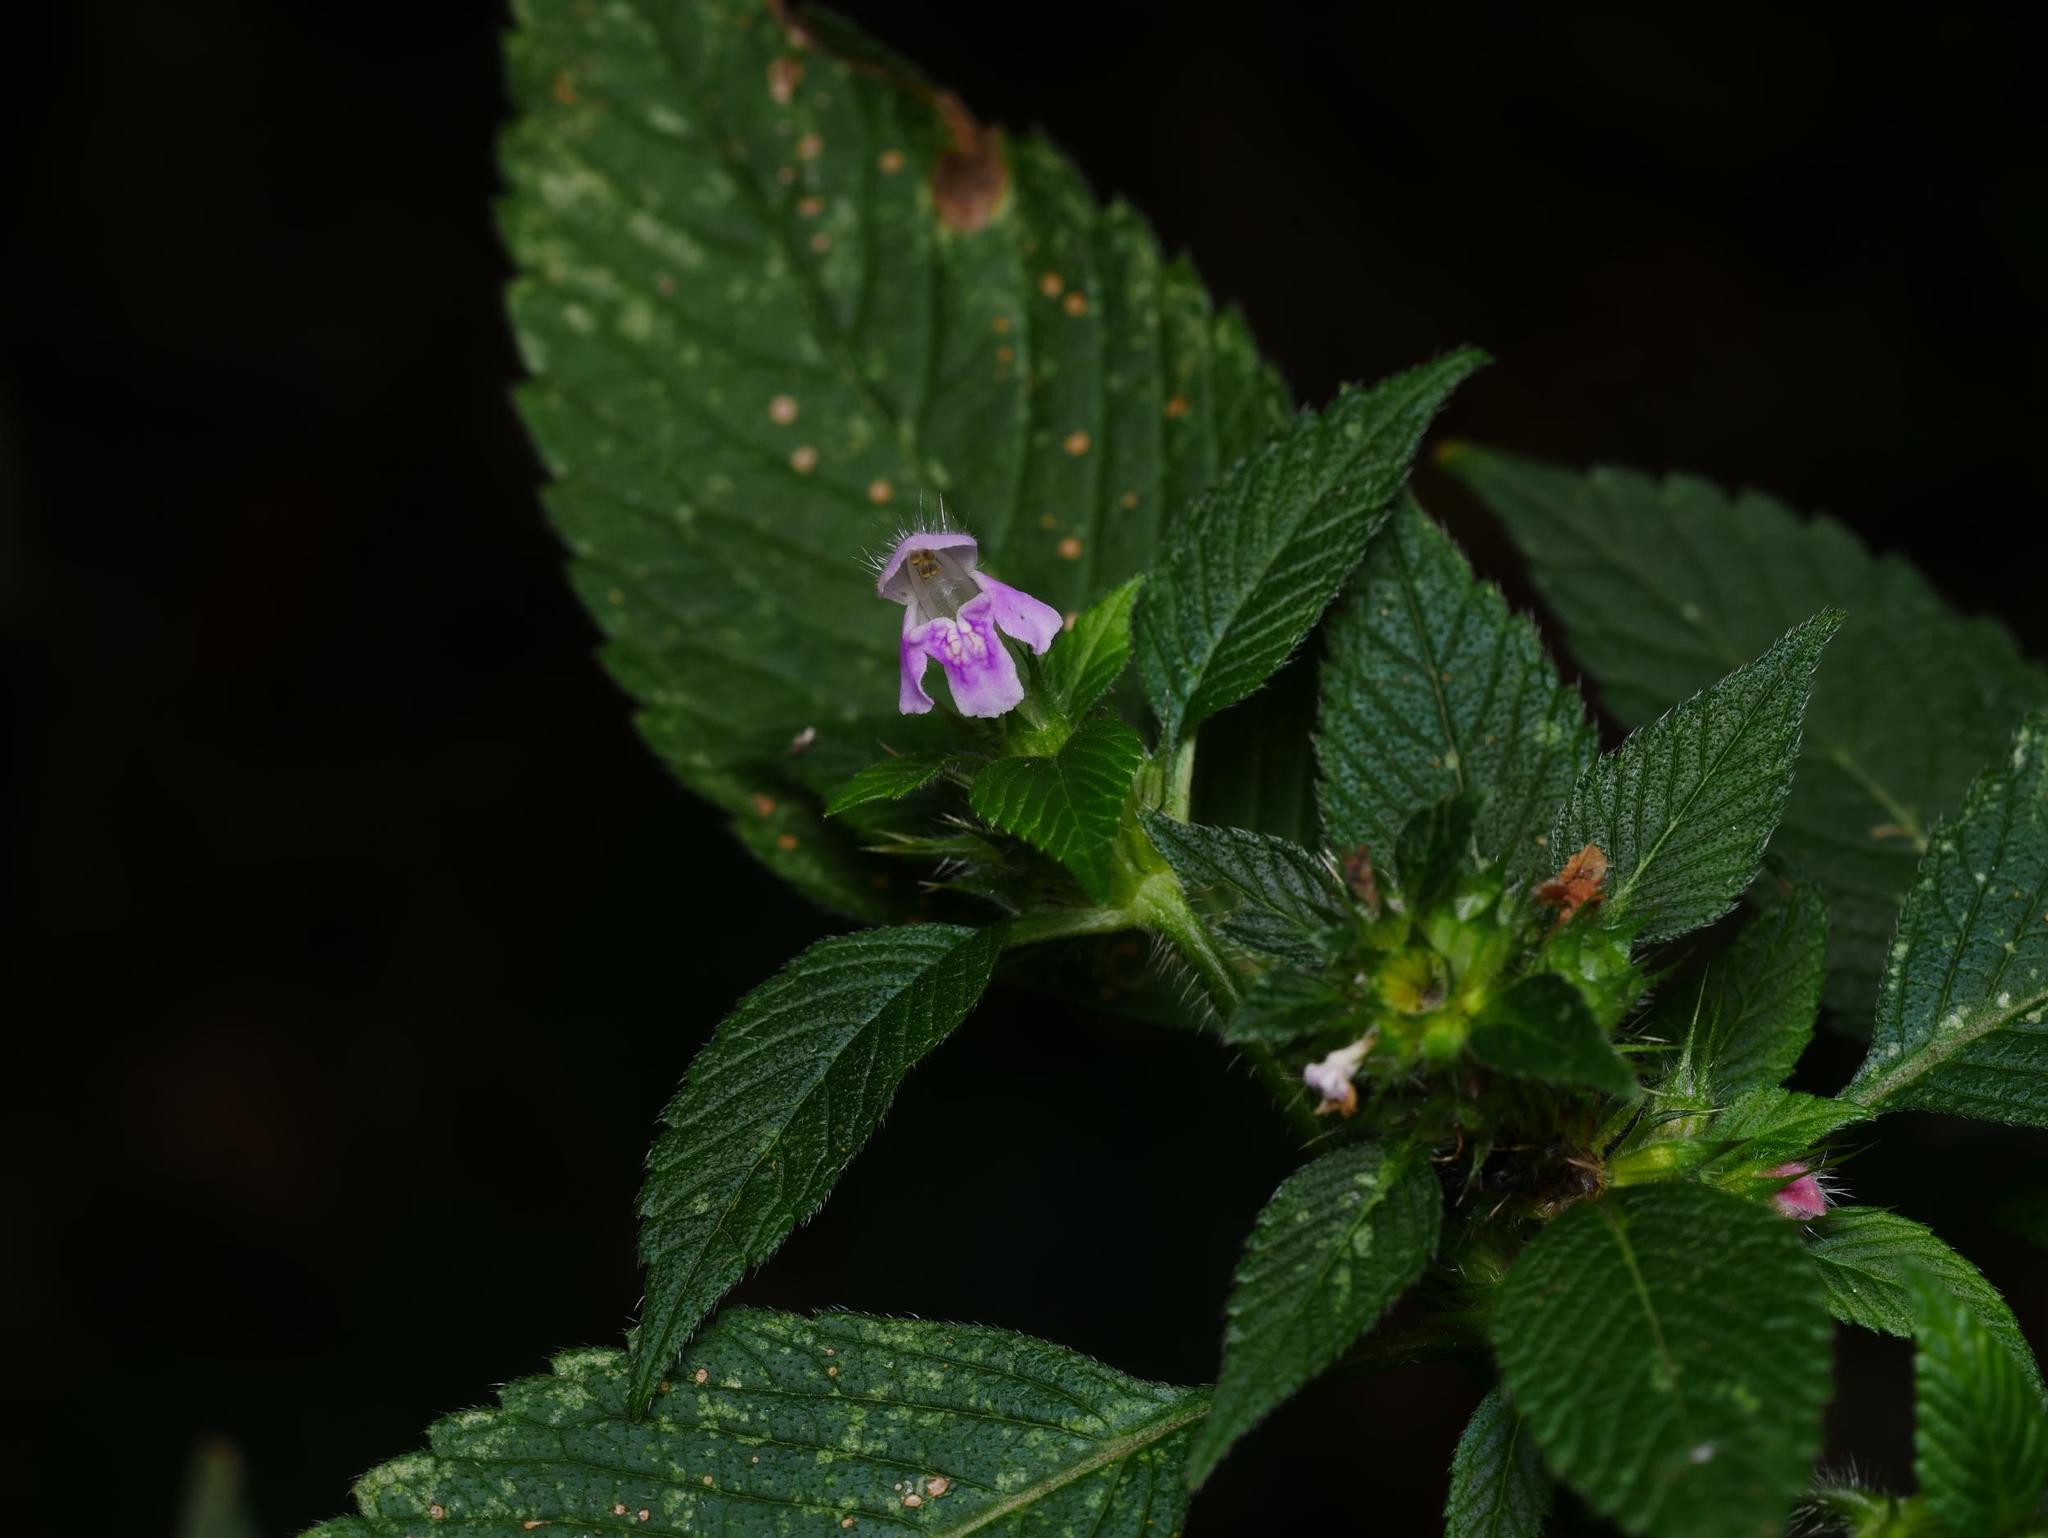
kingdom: Plantae
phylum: Tracheophyta
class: Magnoliopsida
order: Lamiales
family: Lamiaceae
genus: Galeopsis
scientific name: Galeopsis tetrahit
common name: Common hemp-nettle
